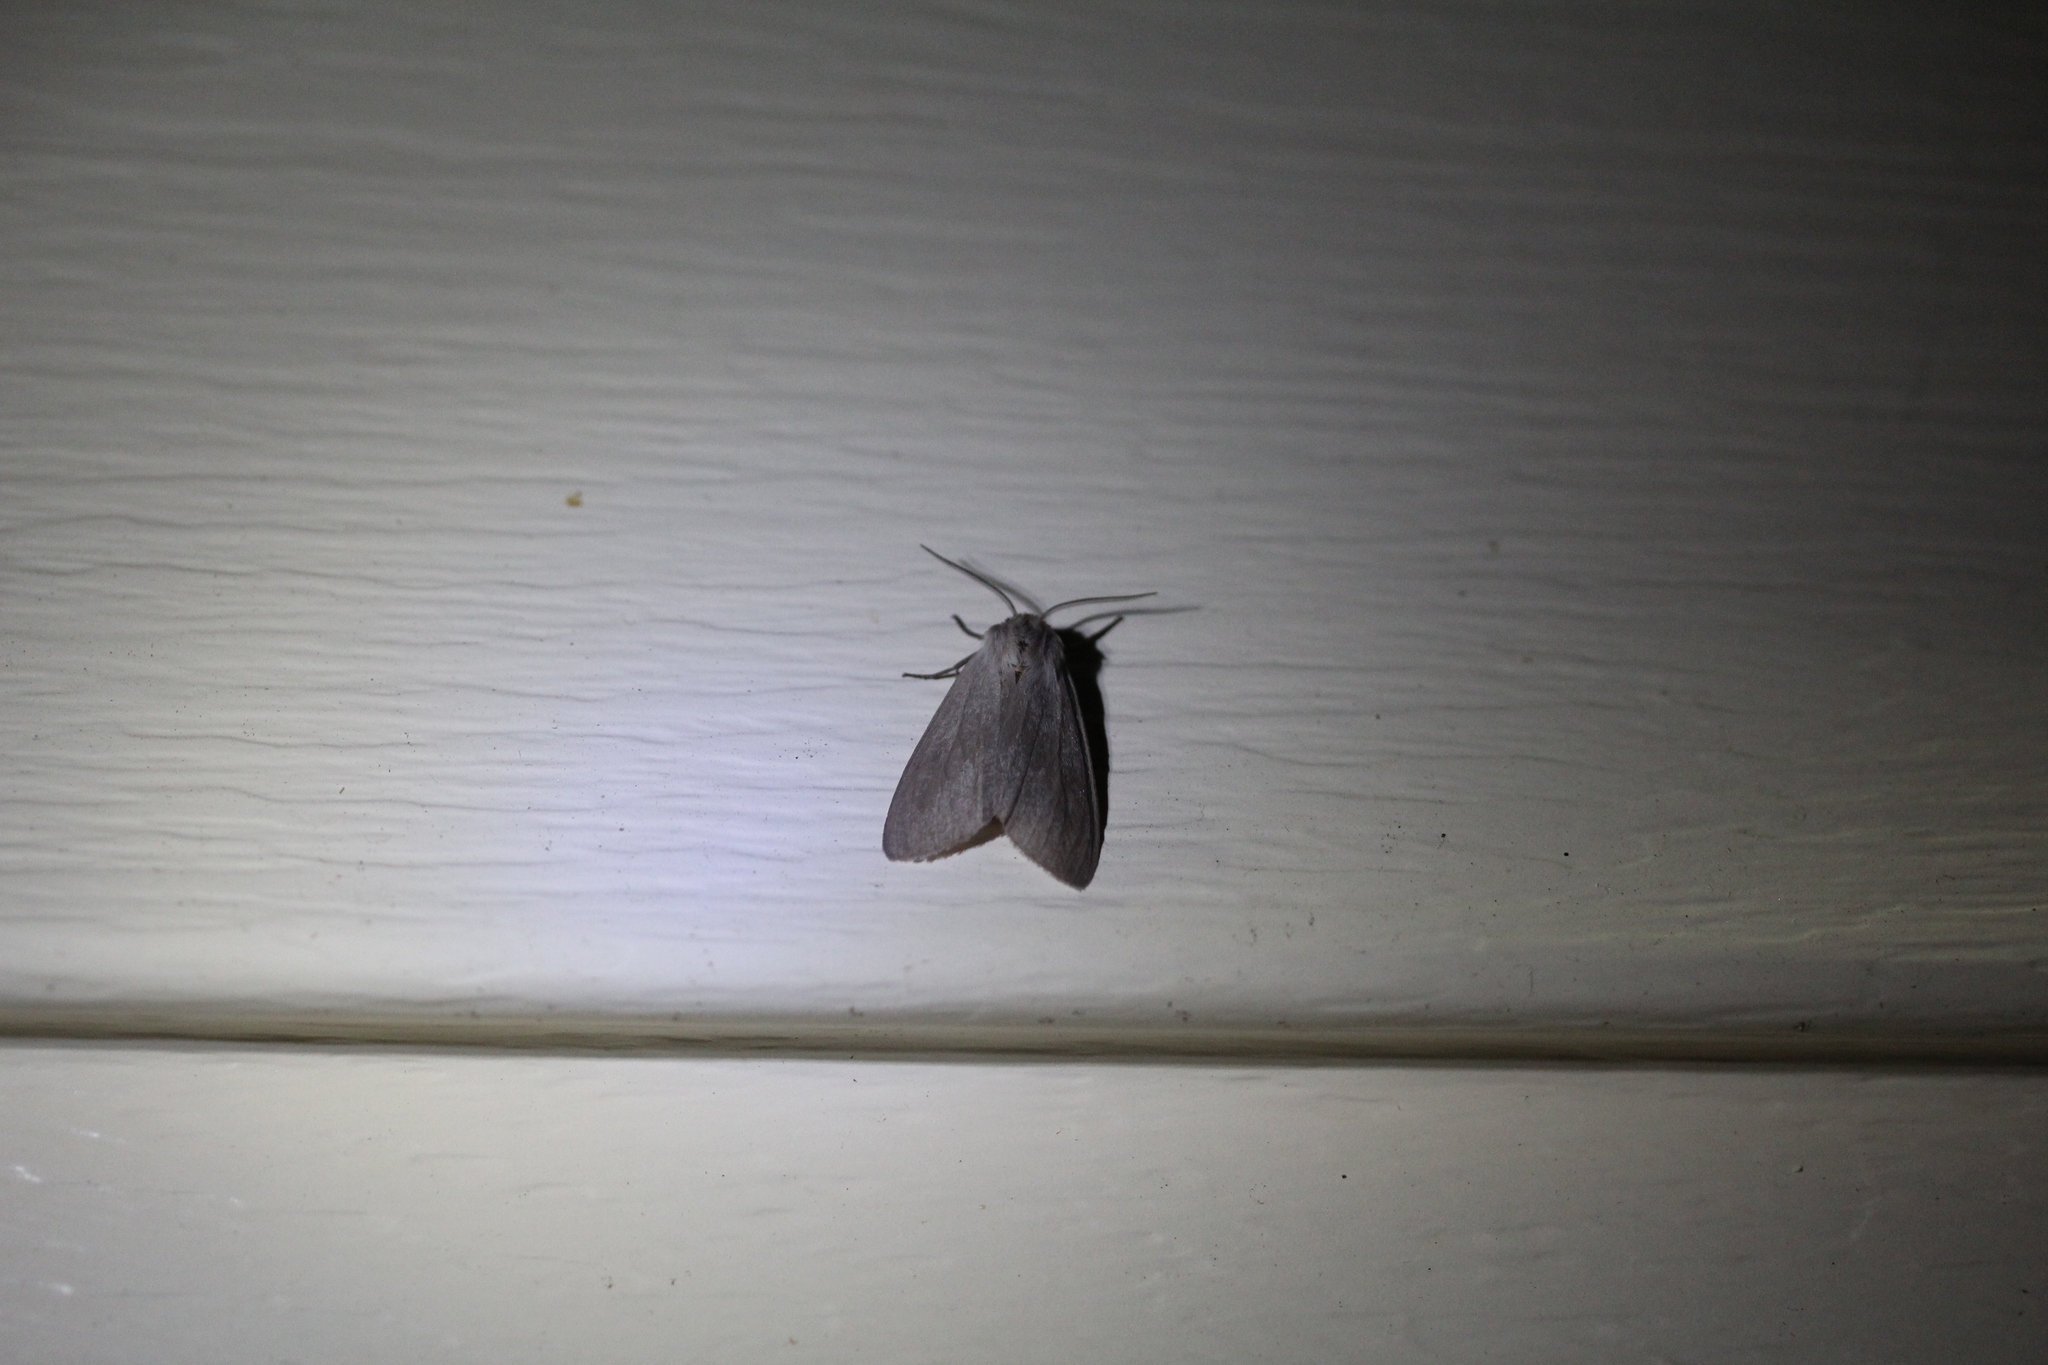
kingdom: Animalia
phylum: Arthropoda
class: Insecta
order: Lepidoptera
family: Erebidae
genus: Euchaetes
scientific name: Euchaetes egle
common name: Milkweed tussock moth
